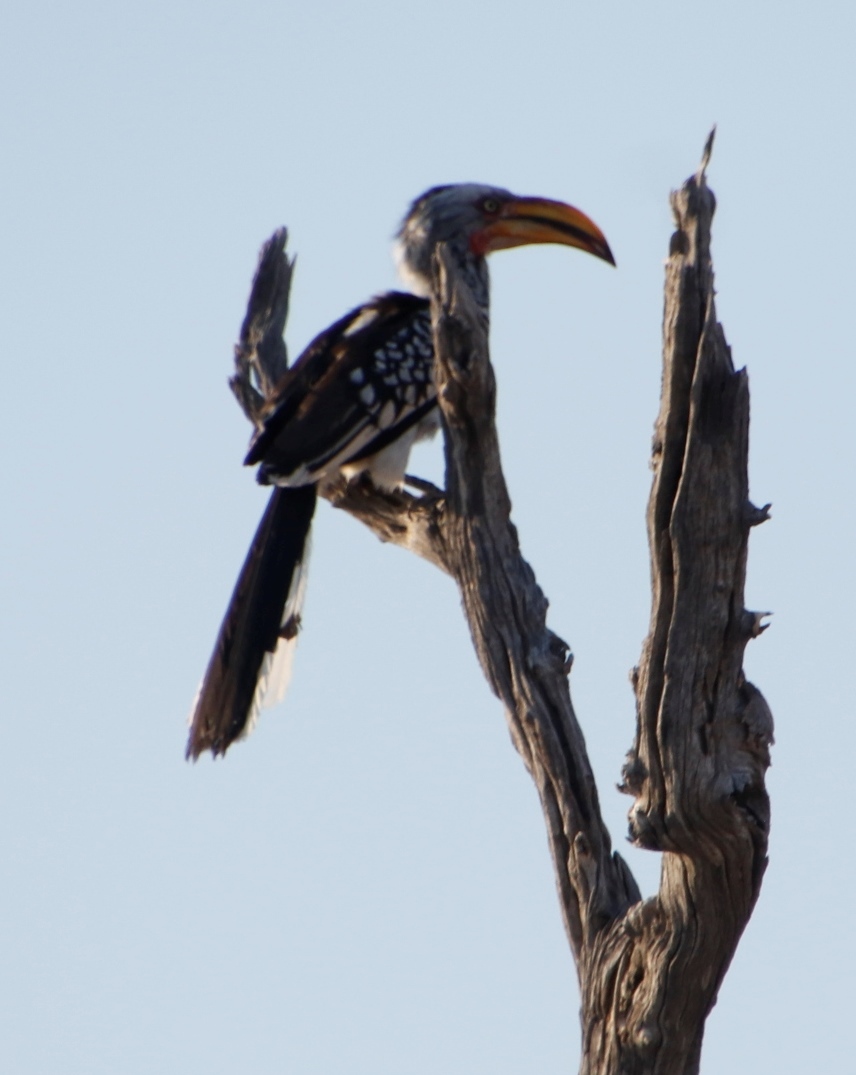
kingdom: Animalia
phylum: Chordata
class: Aves
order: Bucerotiformes
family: Bucerotidae
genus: Tockus
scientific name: Tockus leucomelas
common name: Southern yellow-billed hornbill
